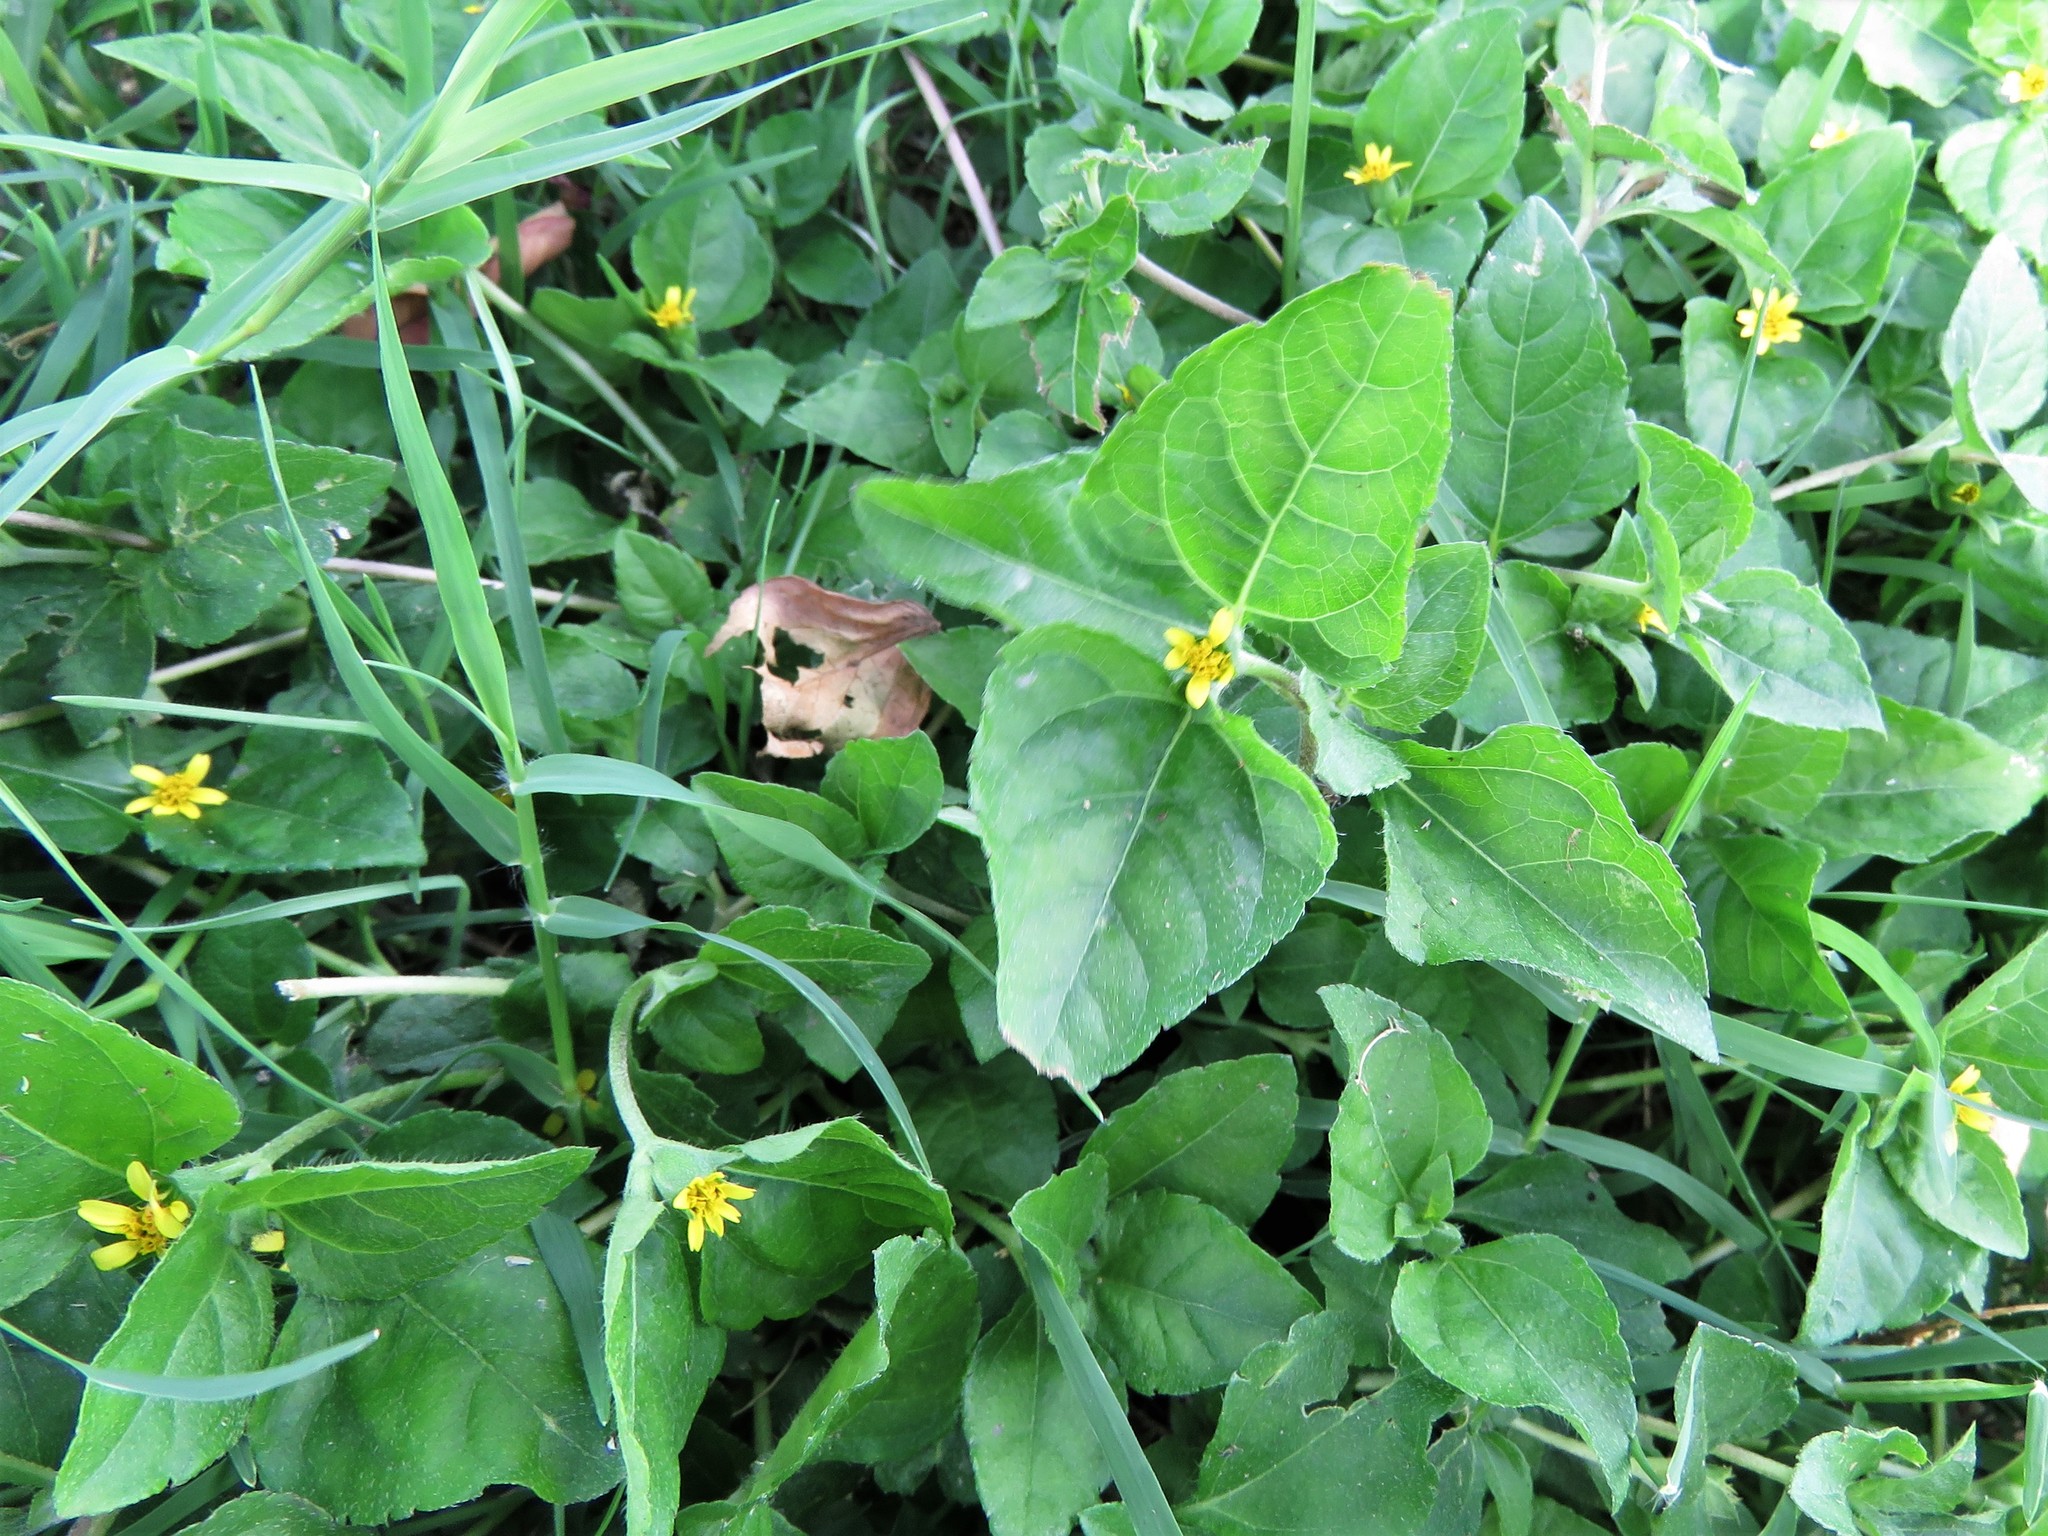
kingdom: Plantae
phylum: Tracheophyta
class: Magnoliopsida
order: Asterales
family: Asteraceae
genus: Calyptocarpus
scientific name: Calyptocarpus vialis
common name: Straggler daisy
